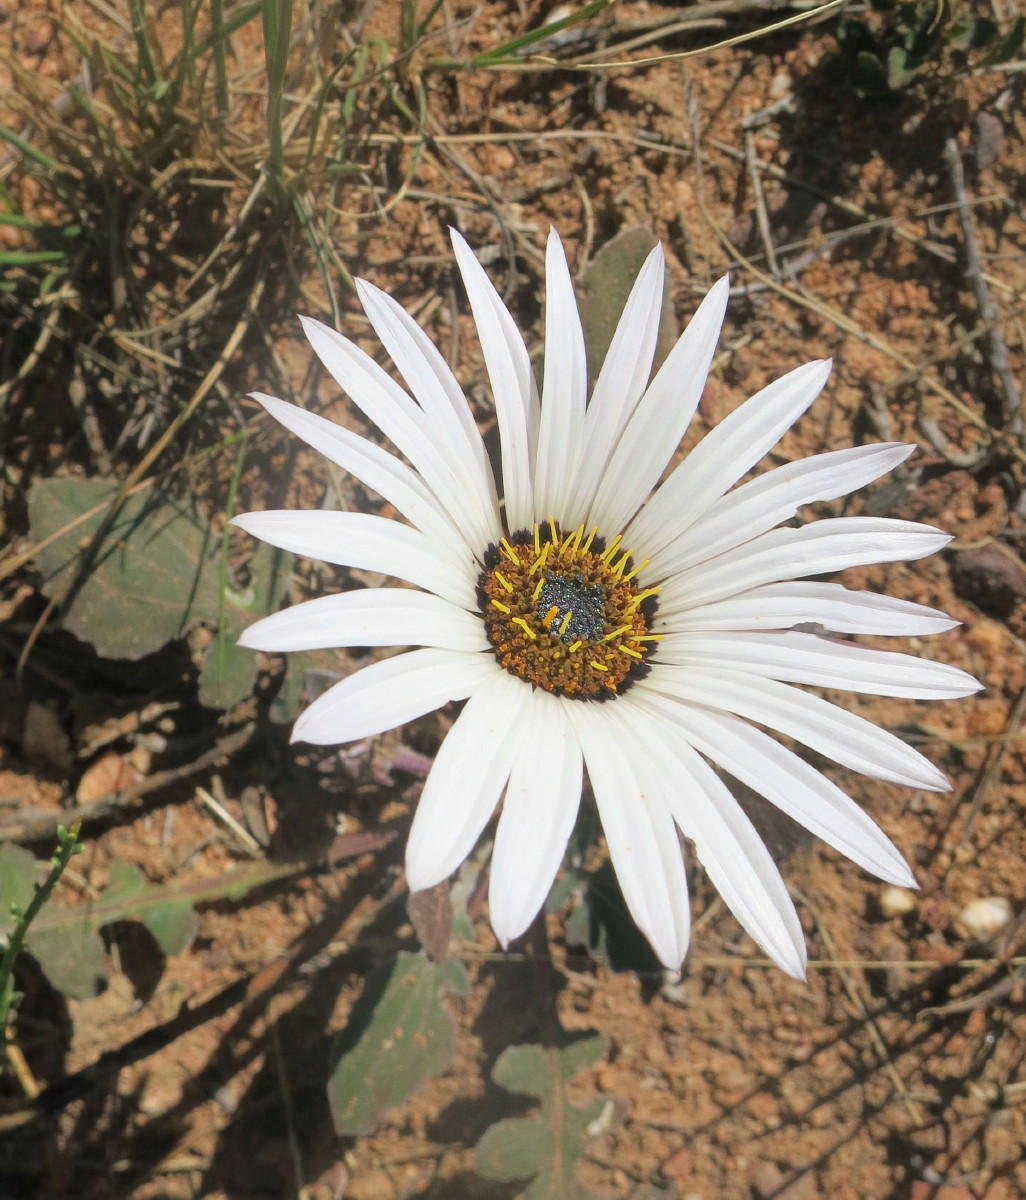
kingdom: Plantae
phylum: Tracheophyta
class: Magnoliopsida
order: Asterales
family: Asteraceae
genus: Arctotis
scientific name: Arctotis acaulis
